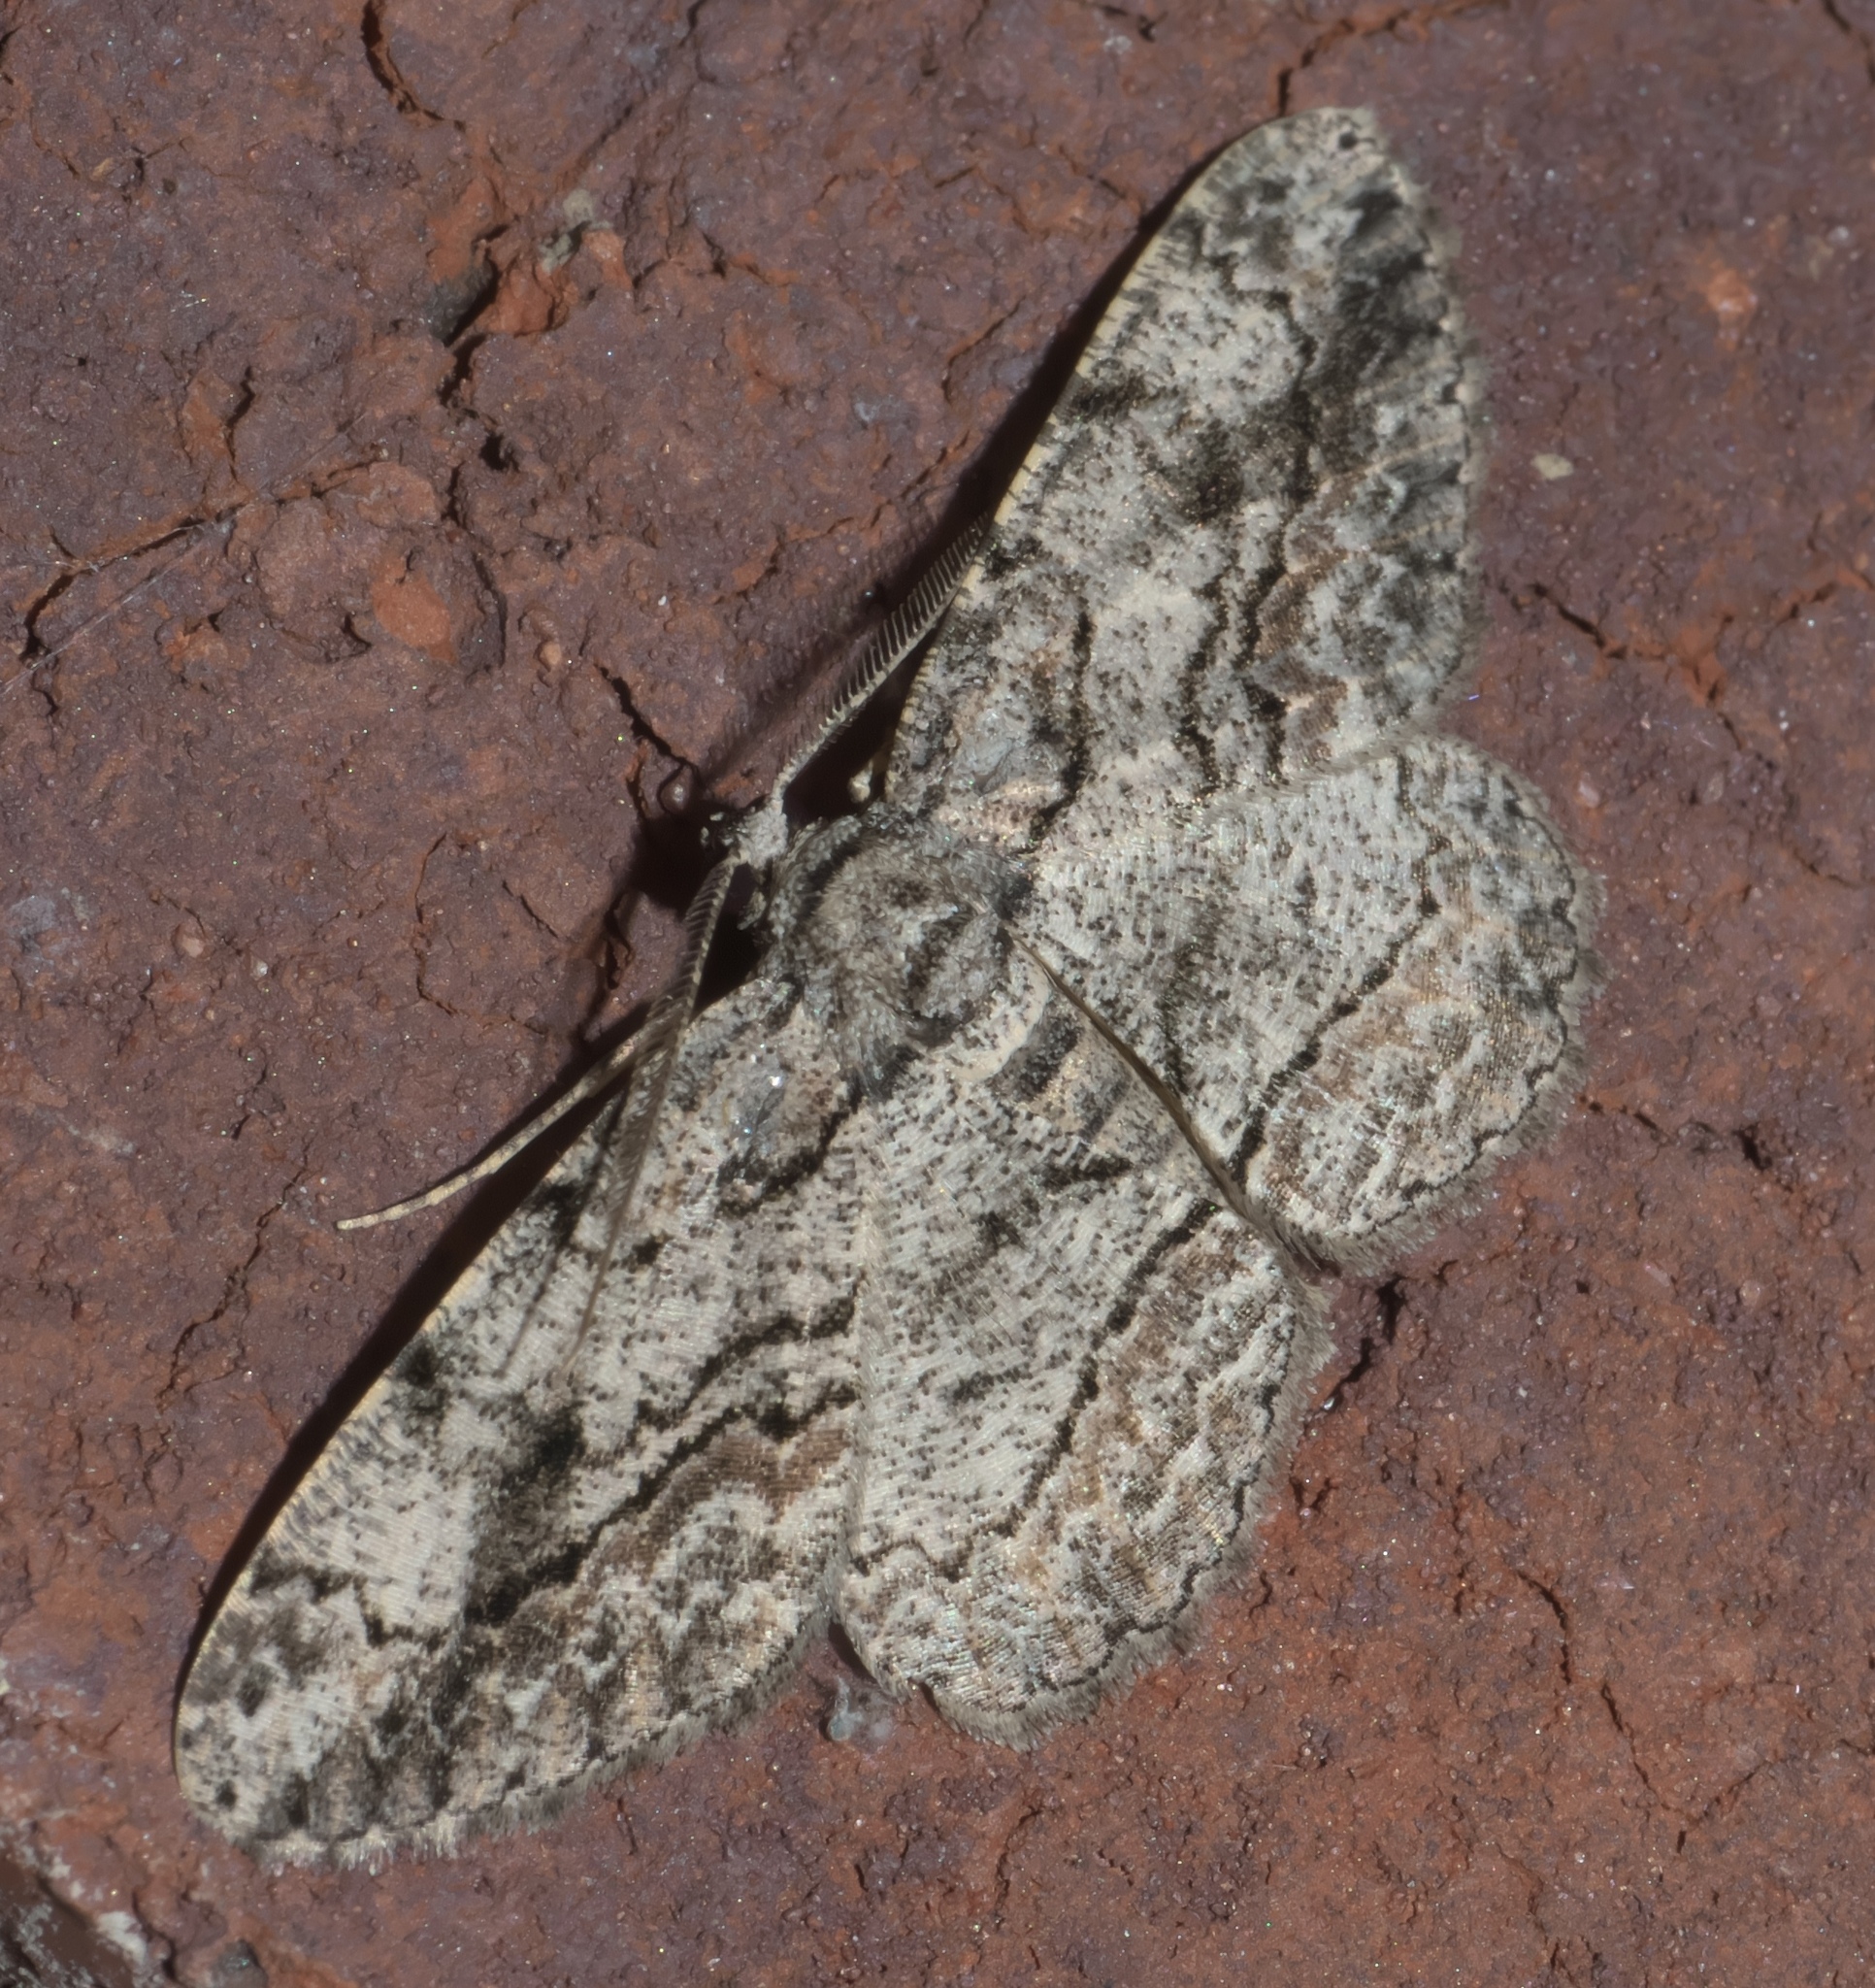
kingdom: Animalia
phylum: Arthropoda
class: Insecta
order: Lepidoptera
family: Geometridae
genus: Anavitrinella
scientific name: Anavitrinella pampinaria
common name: Common gray
